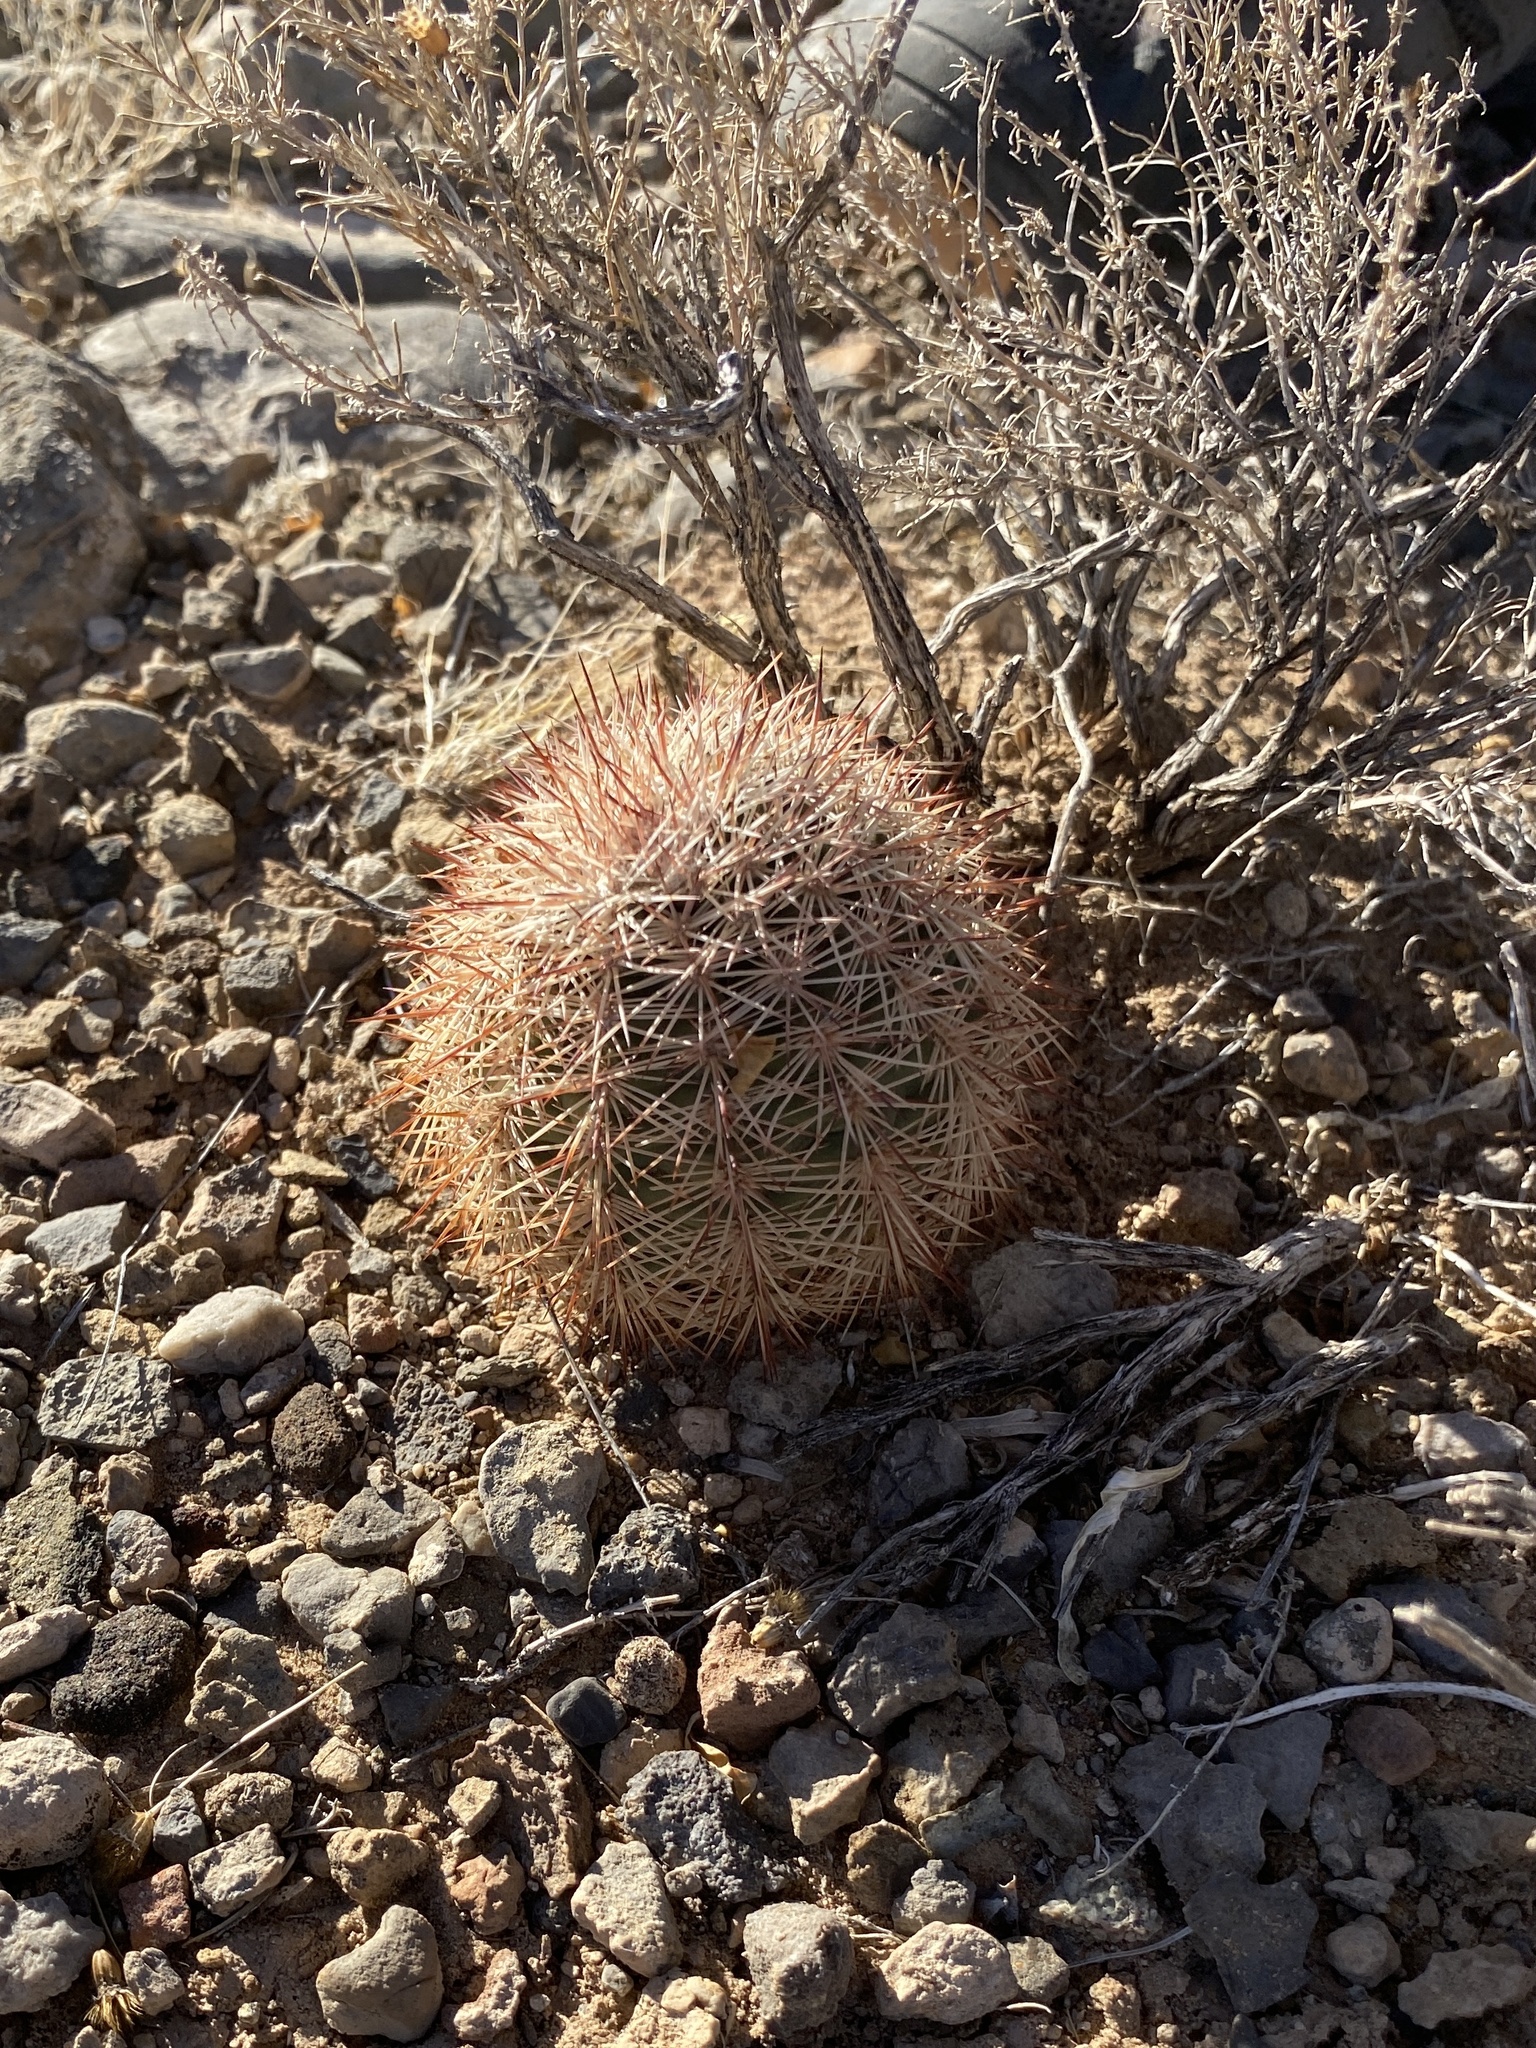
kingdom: Plantae
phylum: Tracheophyta
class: Magnoliopsida
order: Caryophyllales
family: Cactaceae
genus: Echinocereus
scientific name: Echinocereus dasyacanthus
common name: Spiny hedgehog cactus
